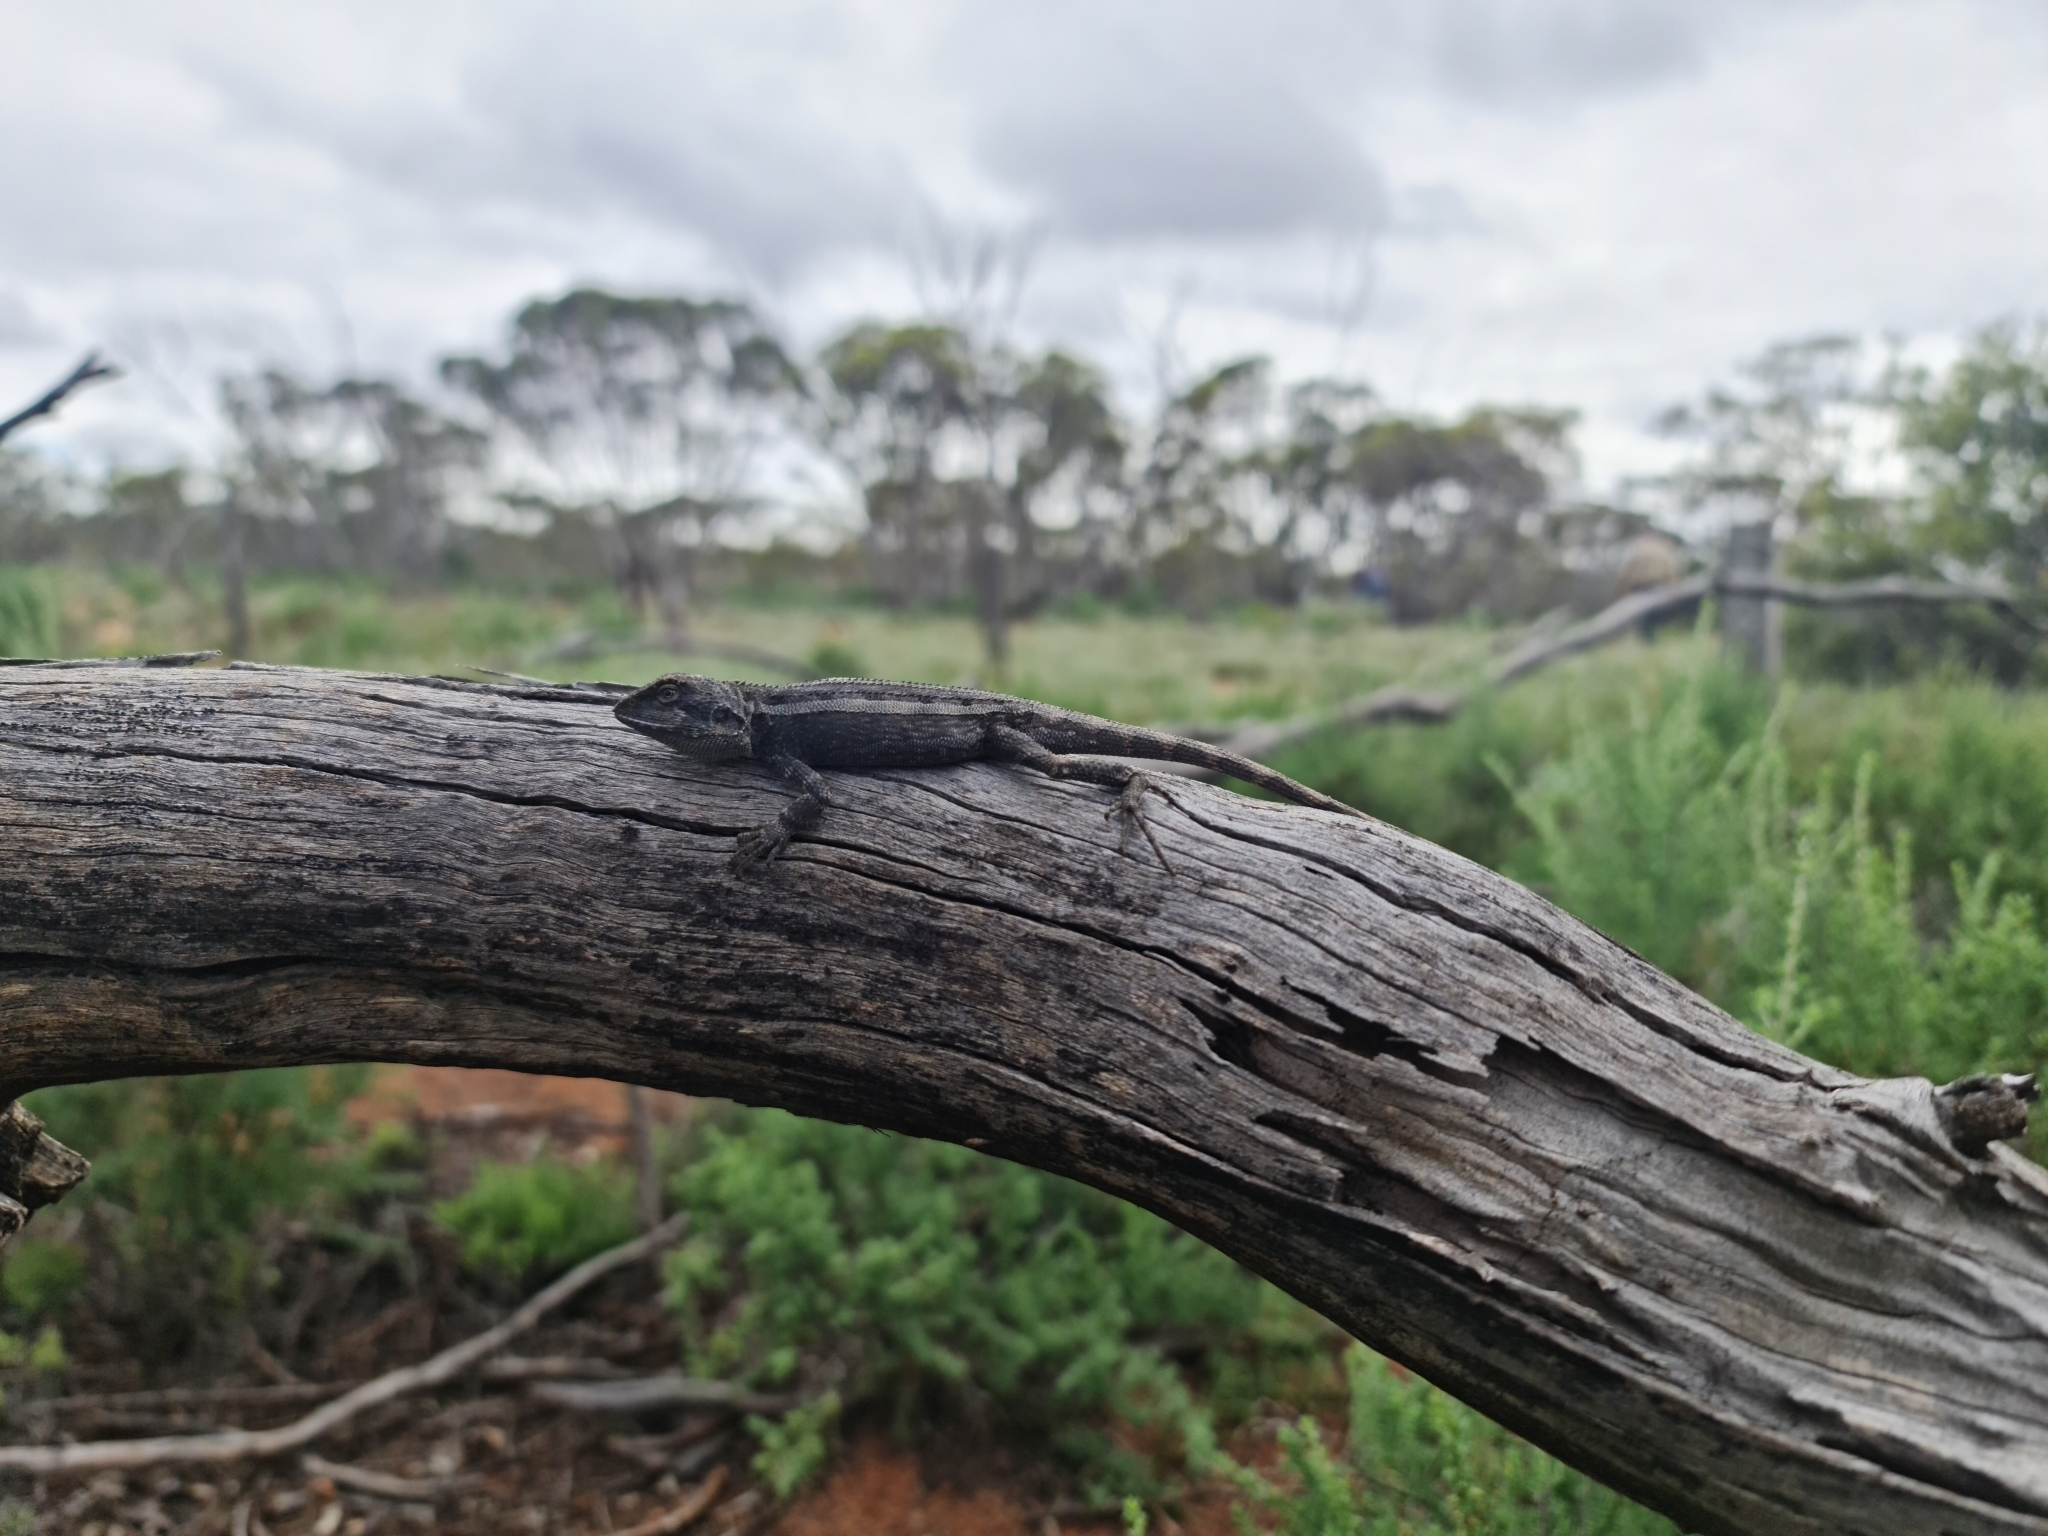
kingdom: Animalia
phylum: Chordata
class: Squamata
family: Agamidae
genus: Diporiphora
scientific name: Diporiphora nobbi
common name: Nobbi
